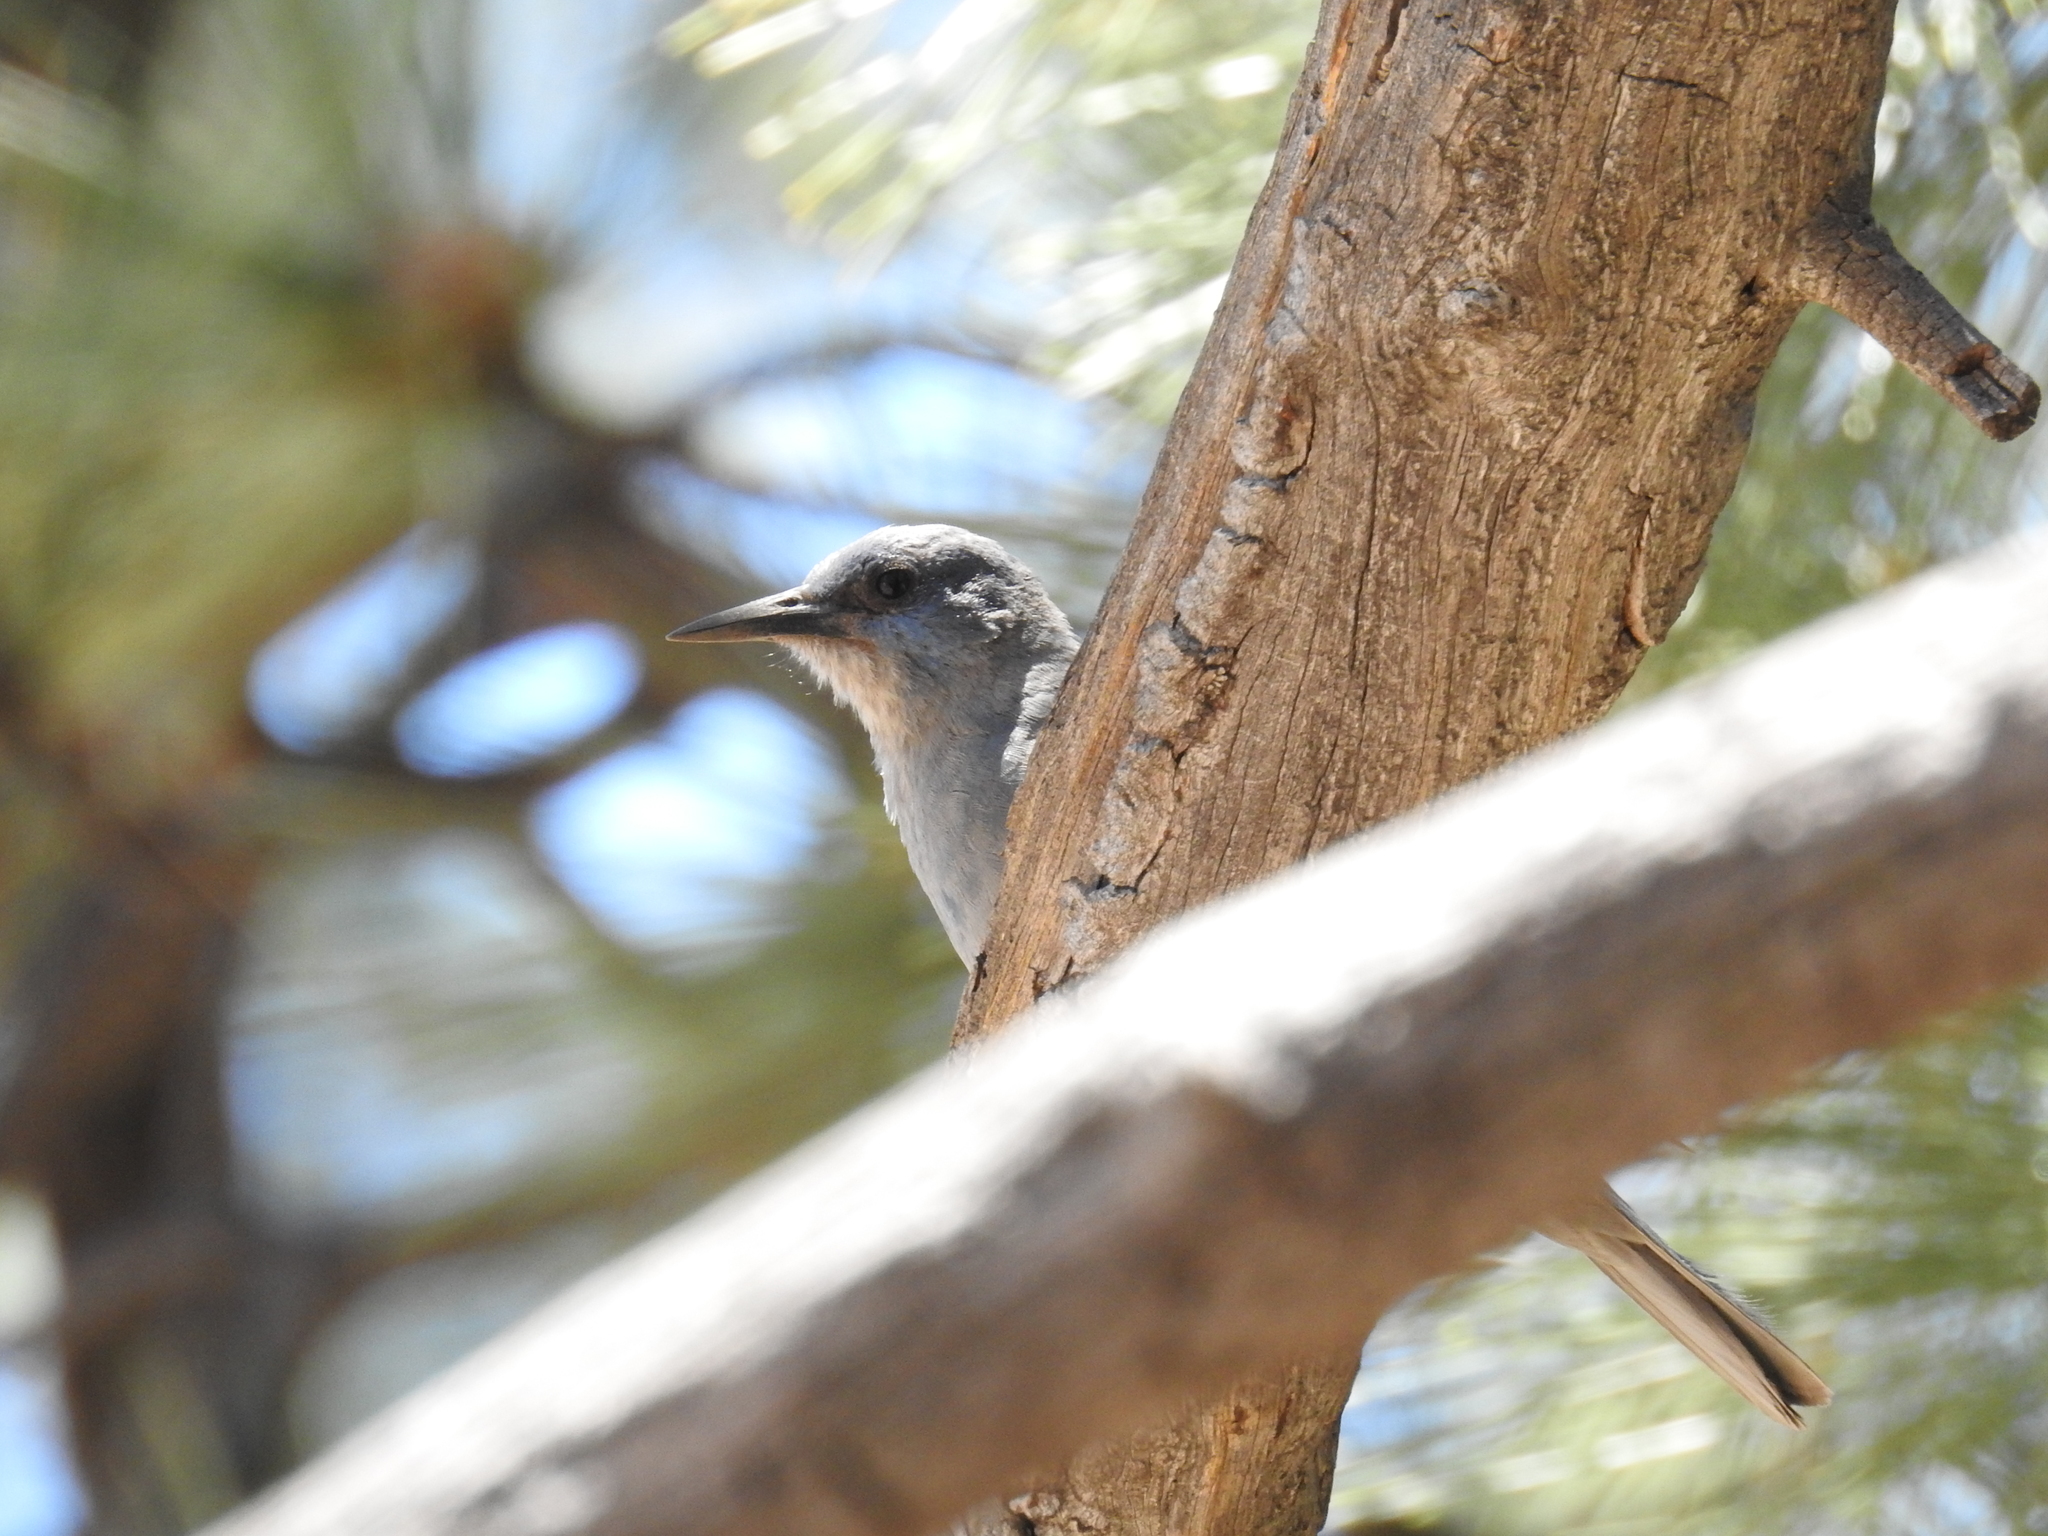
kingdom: Animalia
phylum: Chordata
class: Aves
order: Passeriformes
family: Corvidae
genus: Gymnorhinus
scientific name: Gymnorhinus cyanocephalus
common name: Pinyon jay
